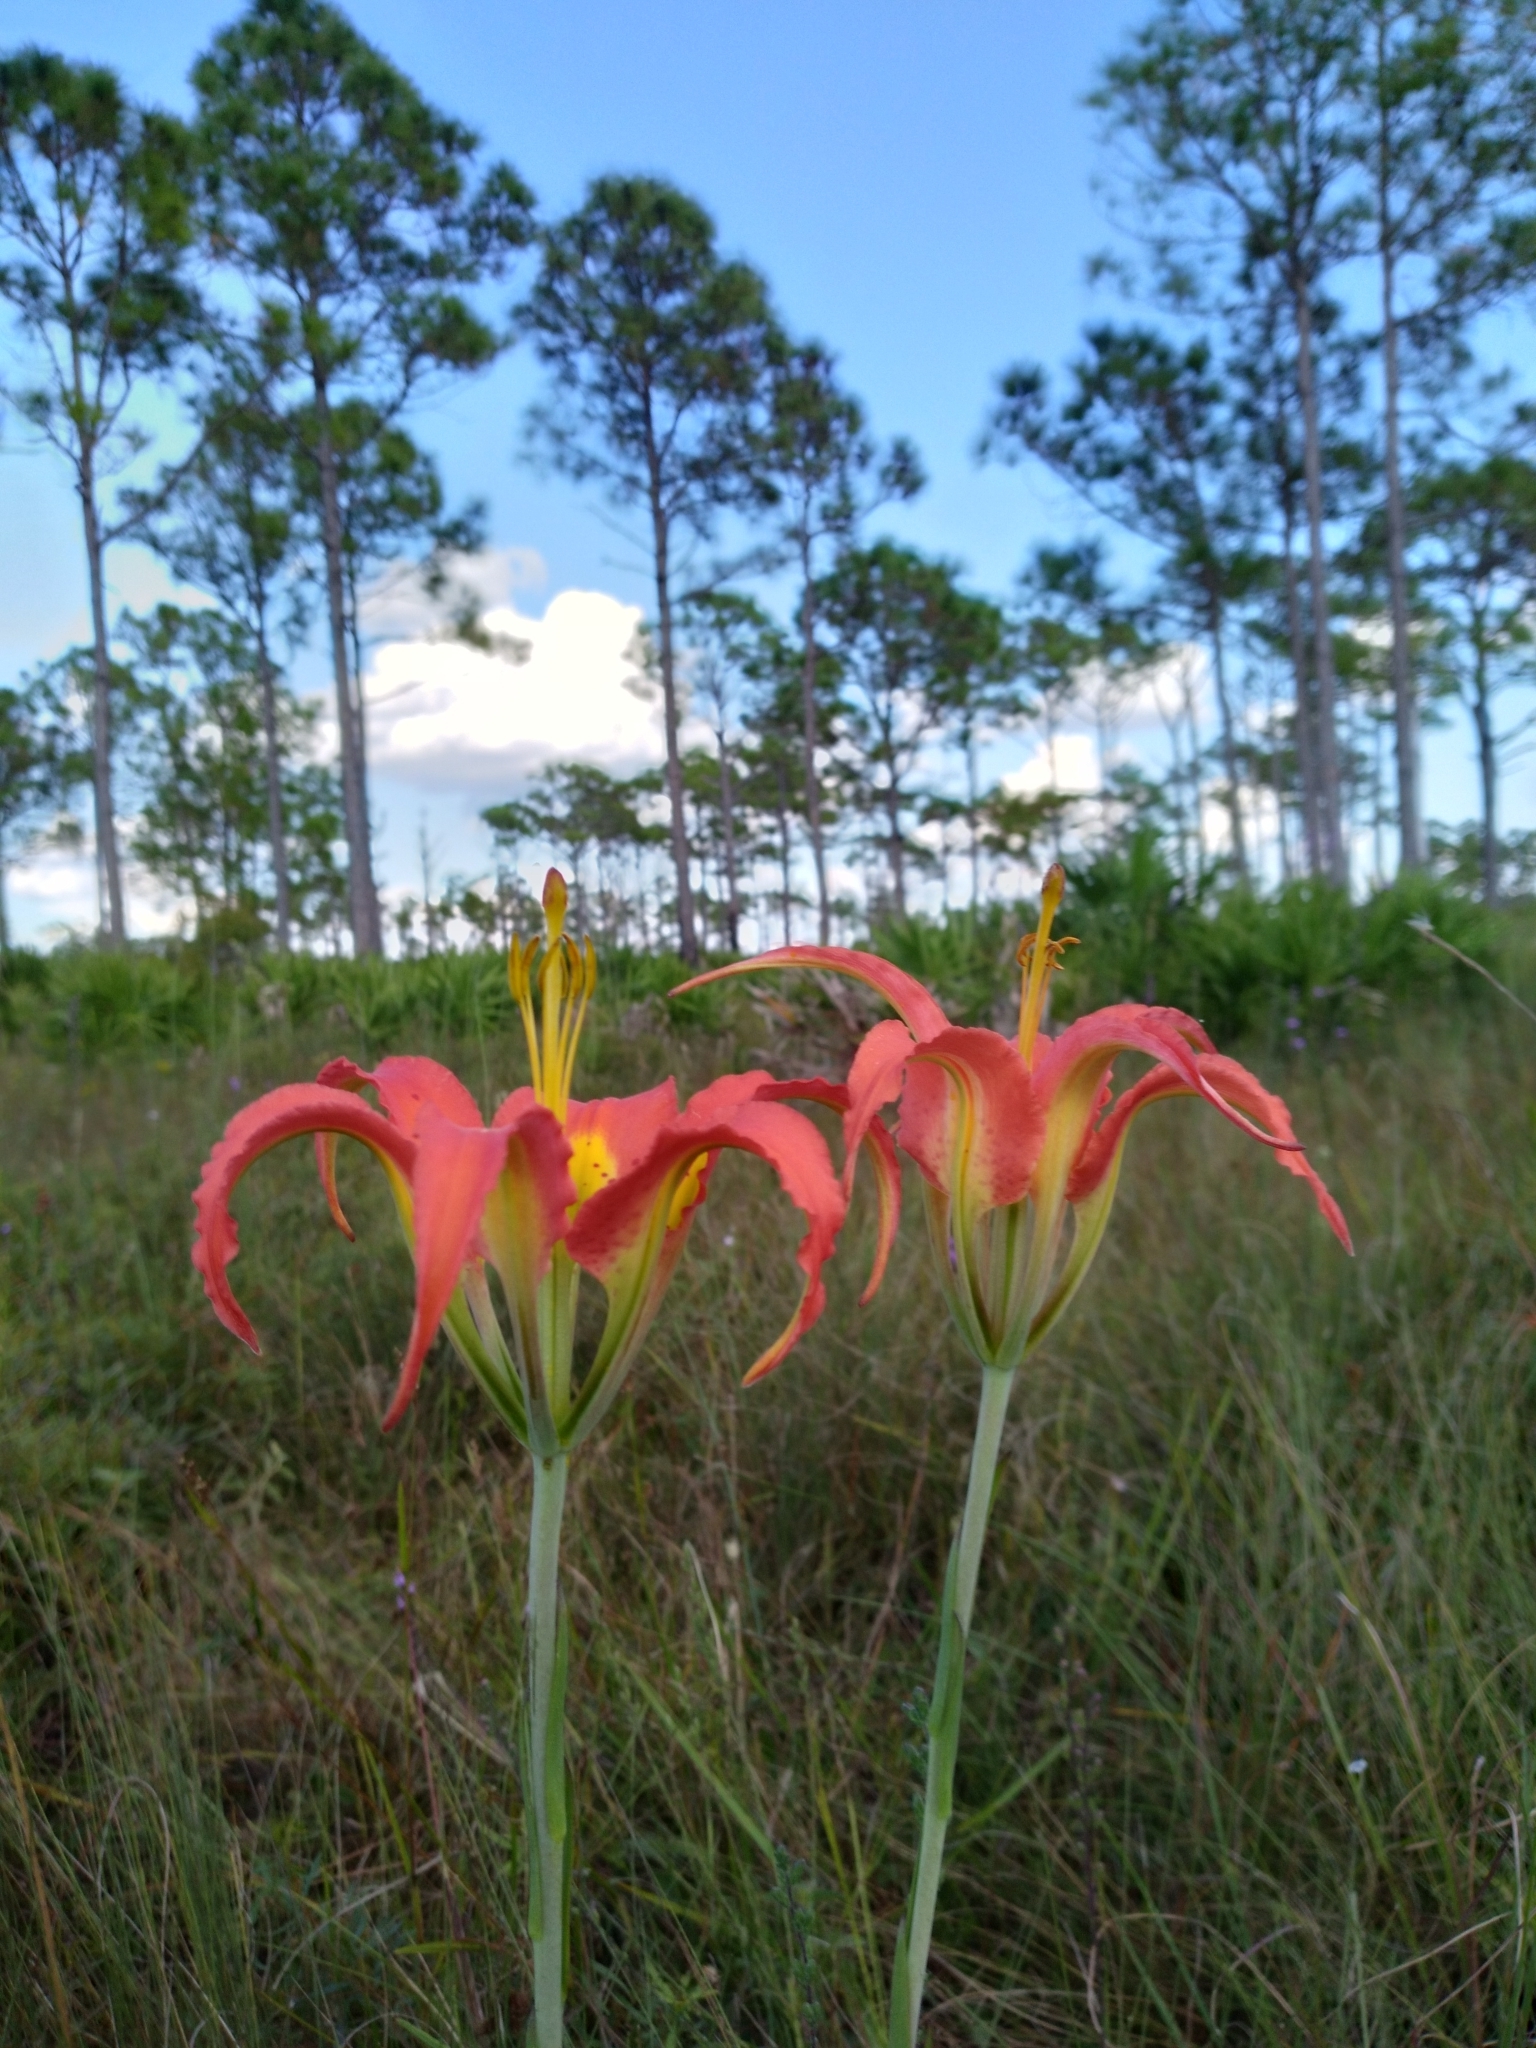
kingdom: Plantae
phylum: Tracheophyta
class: Liliopsida
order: Liliales
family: Liliaceae
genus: Lilium
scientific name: Lilium catesbaei
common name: Catesby's lily
